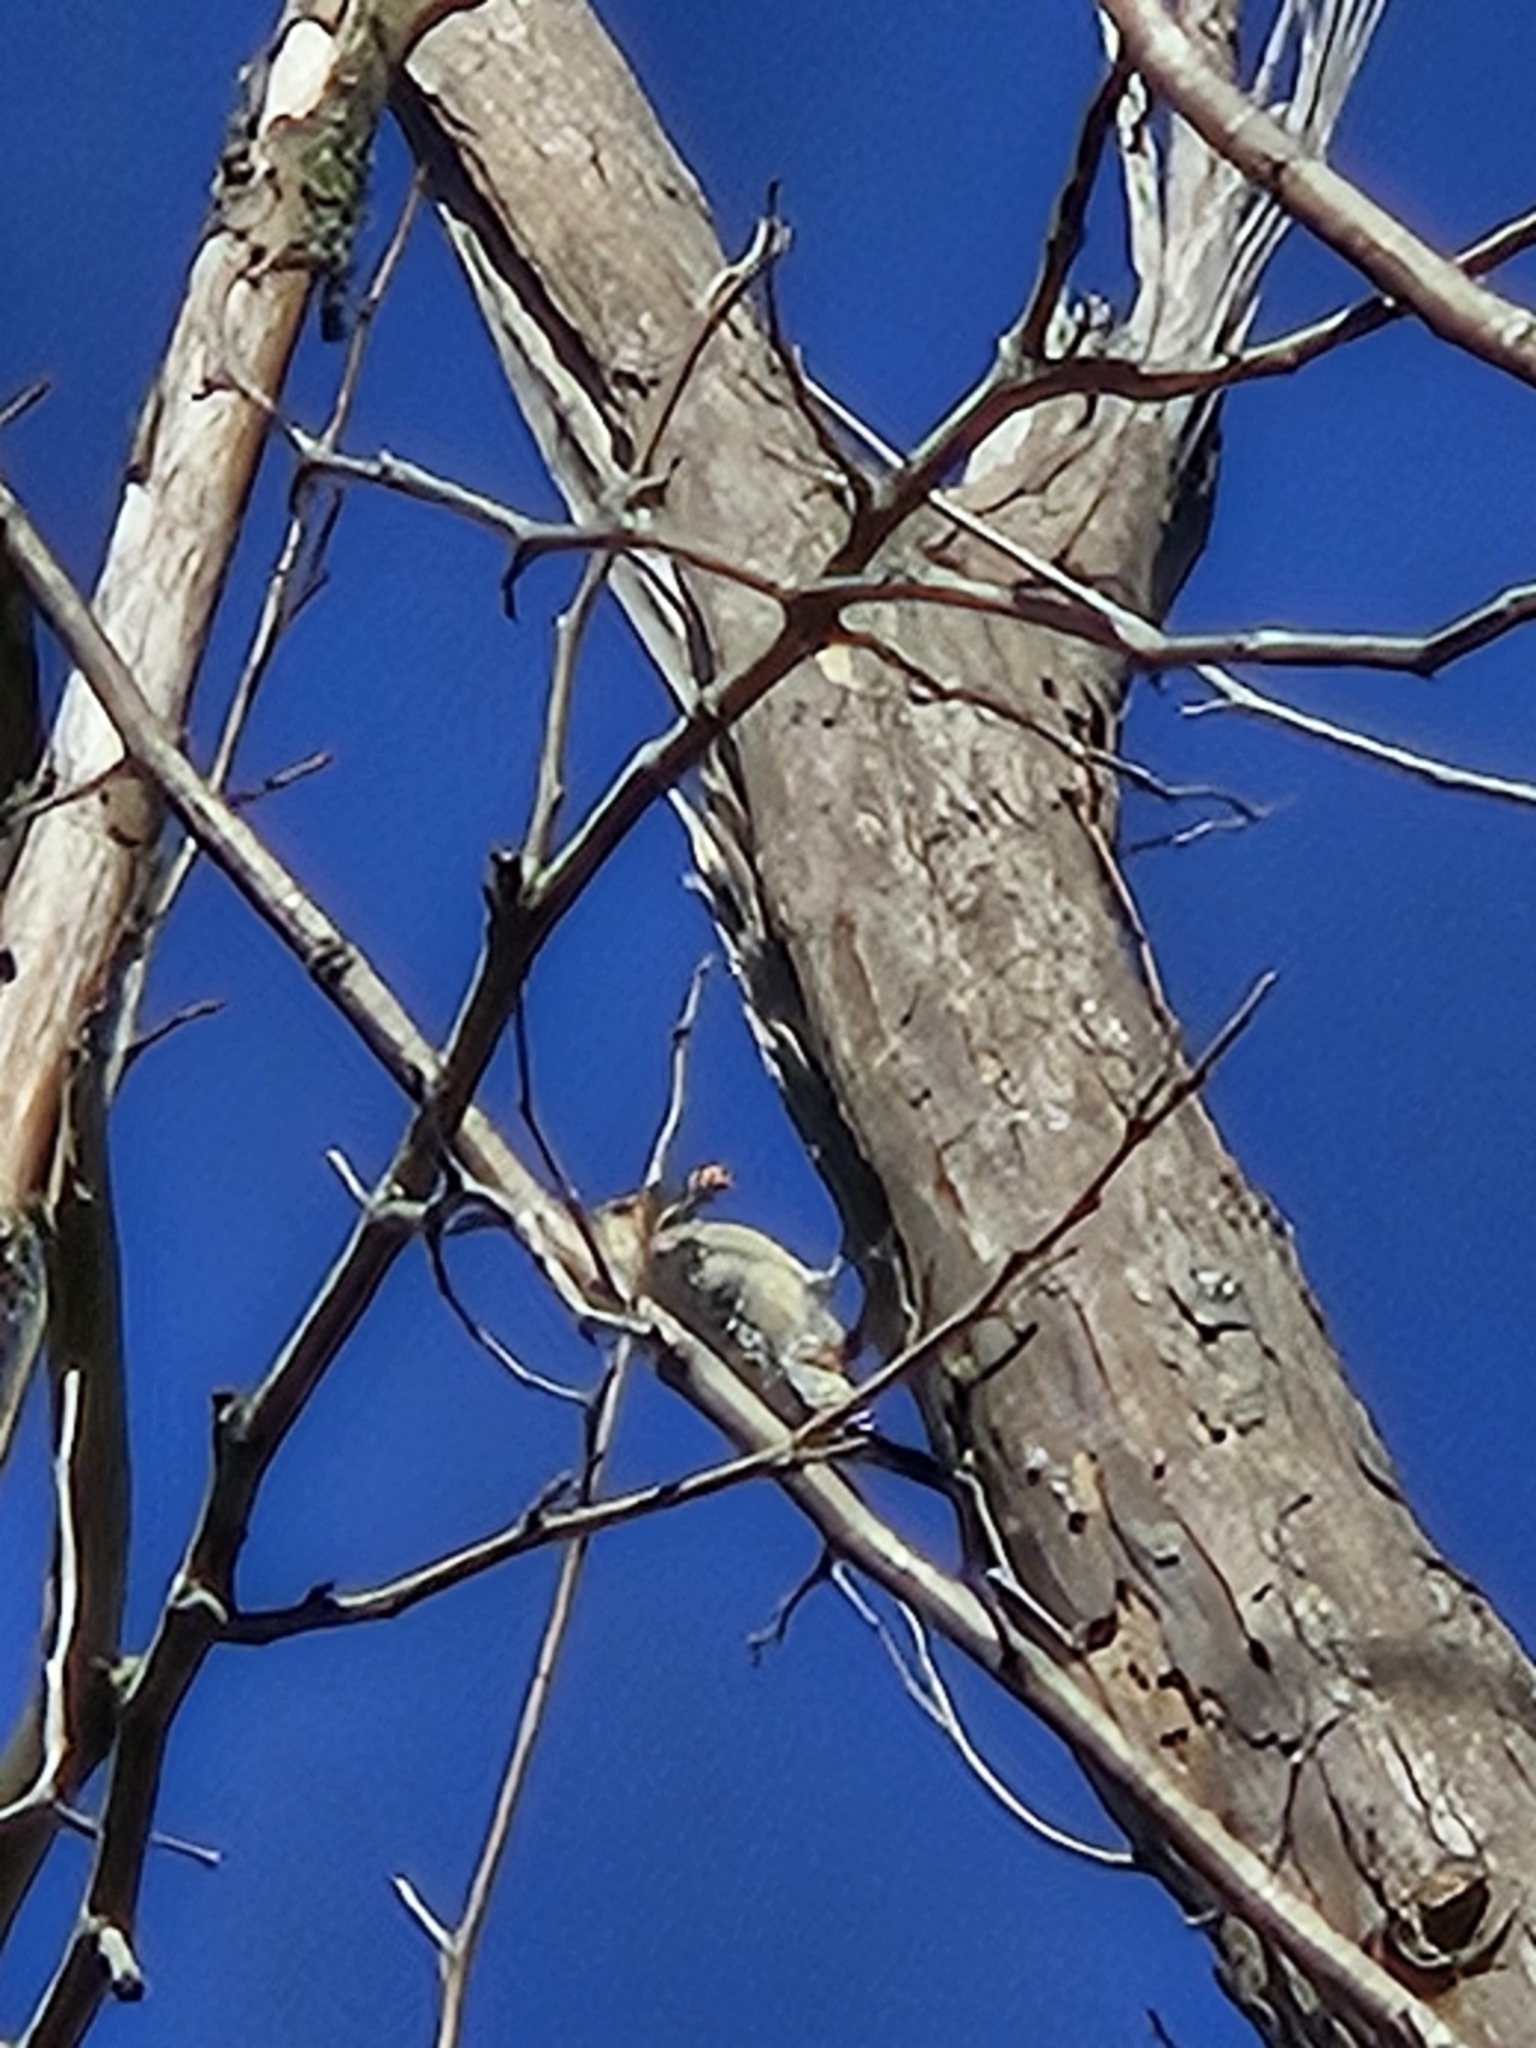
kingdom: Animalia
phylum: Chordata
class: Aves
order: Piciformes
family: Picidae
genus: Melanerpes
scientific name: Melanerpes carolinus
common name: Red-bellied woodpecker
